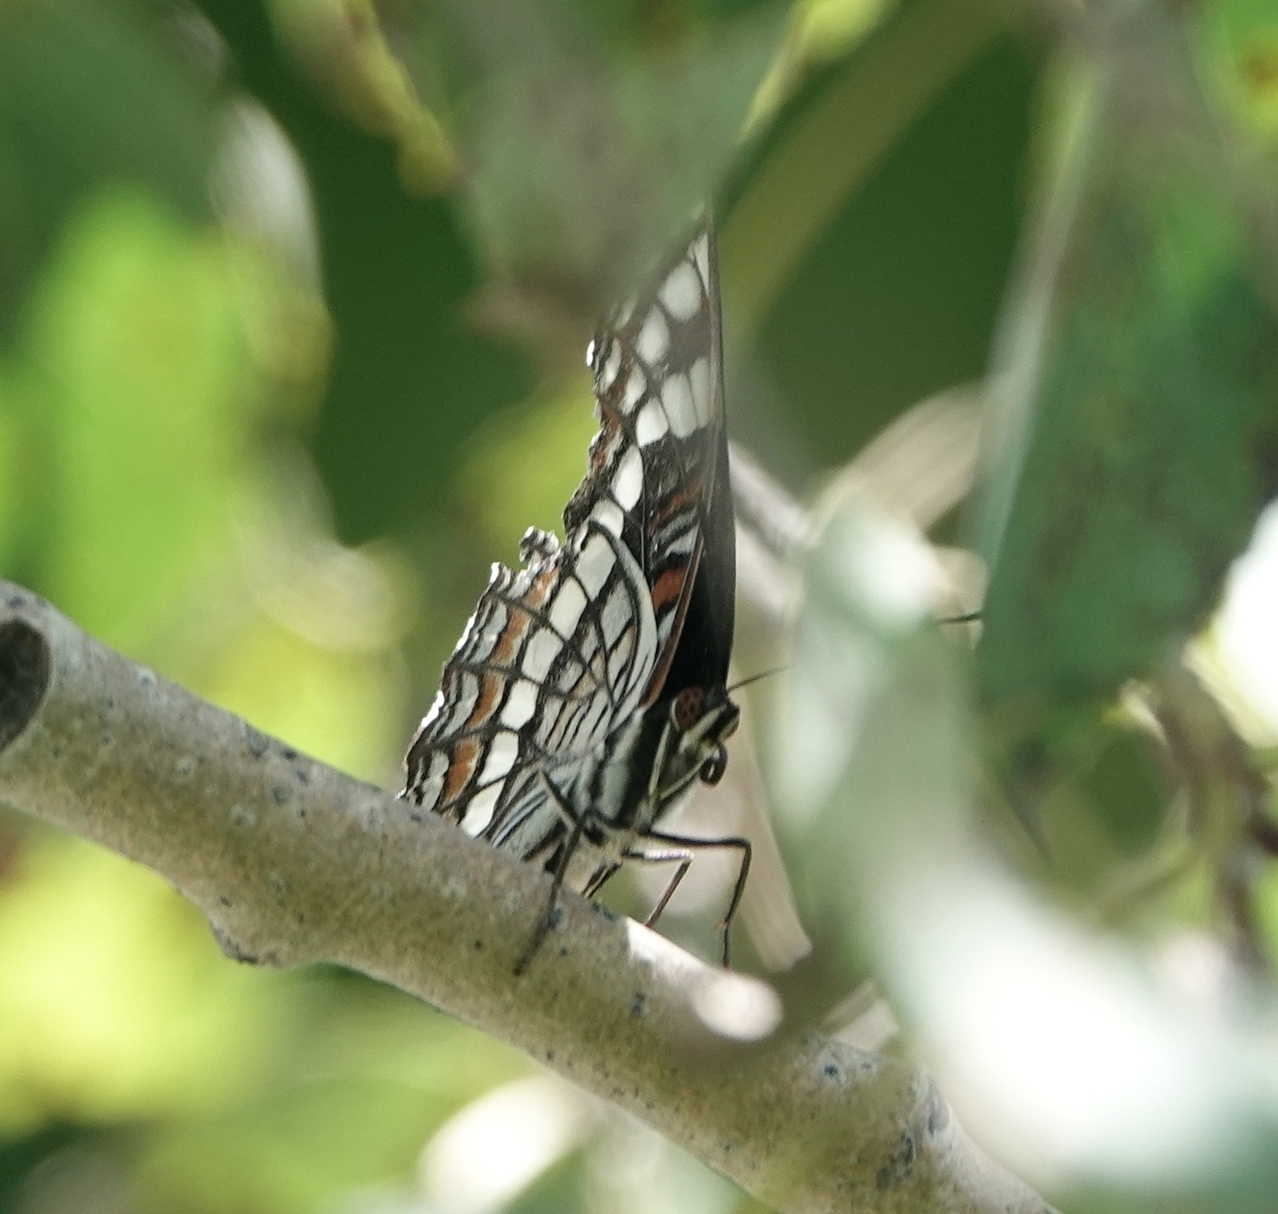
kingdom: Animalia
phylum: Arthropoda
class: Insecta
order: Lepidoptera
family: Nymphalidae
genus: Limenitis
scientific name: Limenitis weidemeyerii
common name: Weidemeyer's admiral
